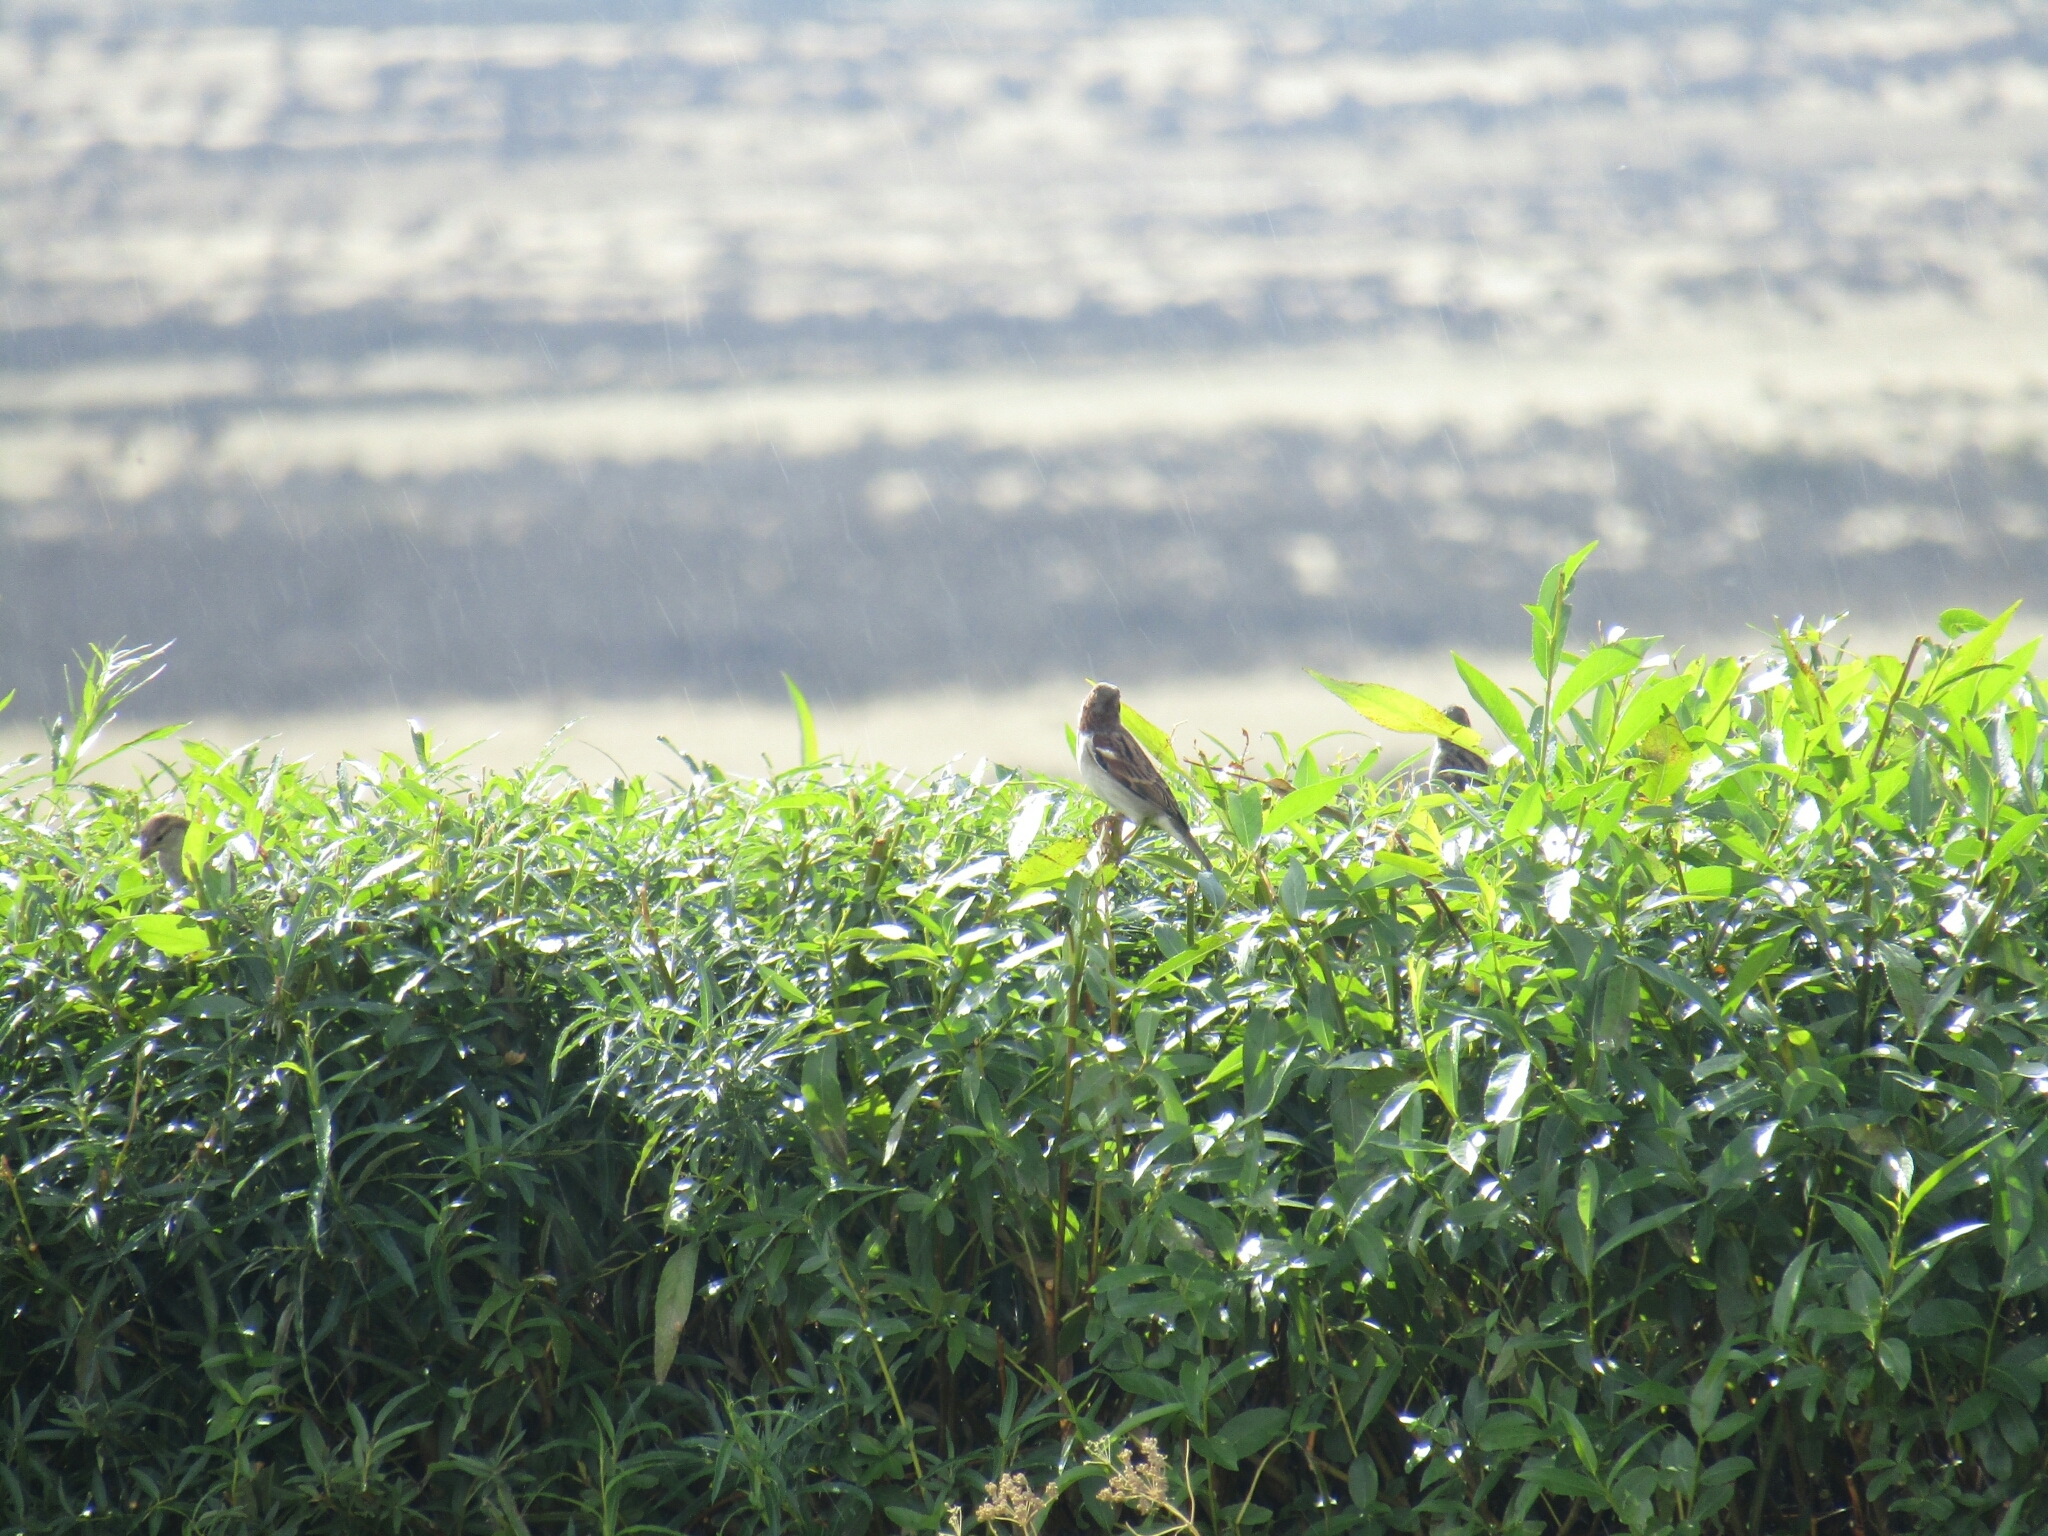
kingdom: Animalia
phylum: Chordata
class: Aves
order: Passeriformes
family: Passeridae
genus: Passer
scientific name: Passer domesticus
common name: House sparrow
